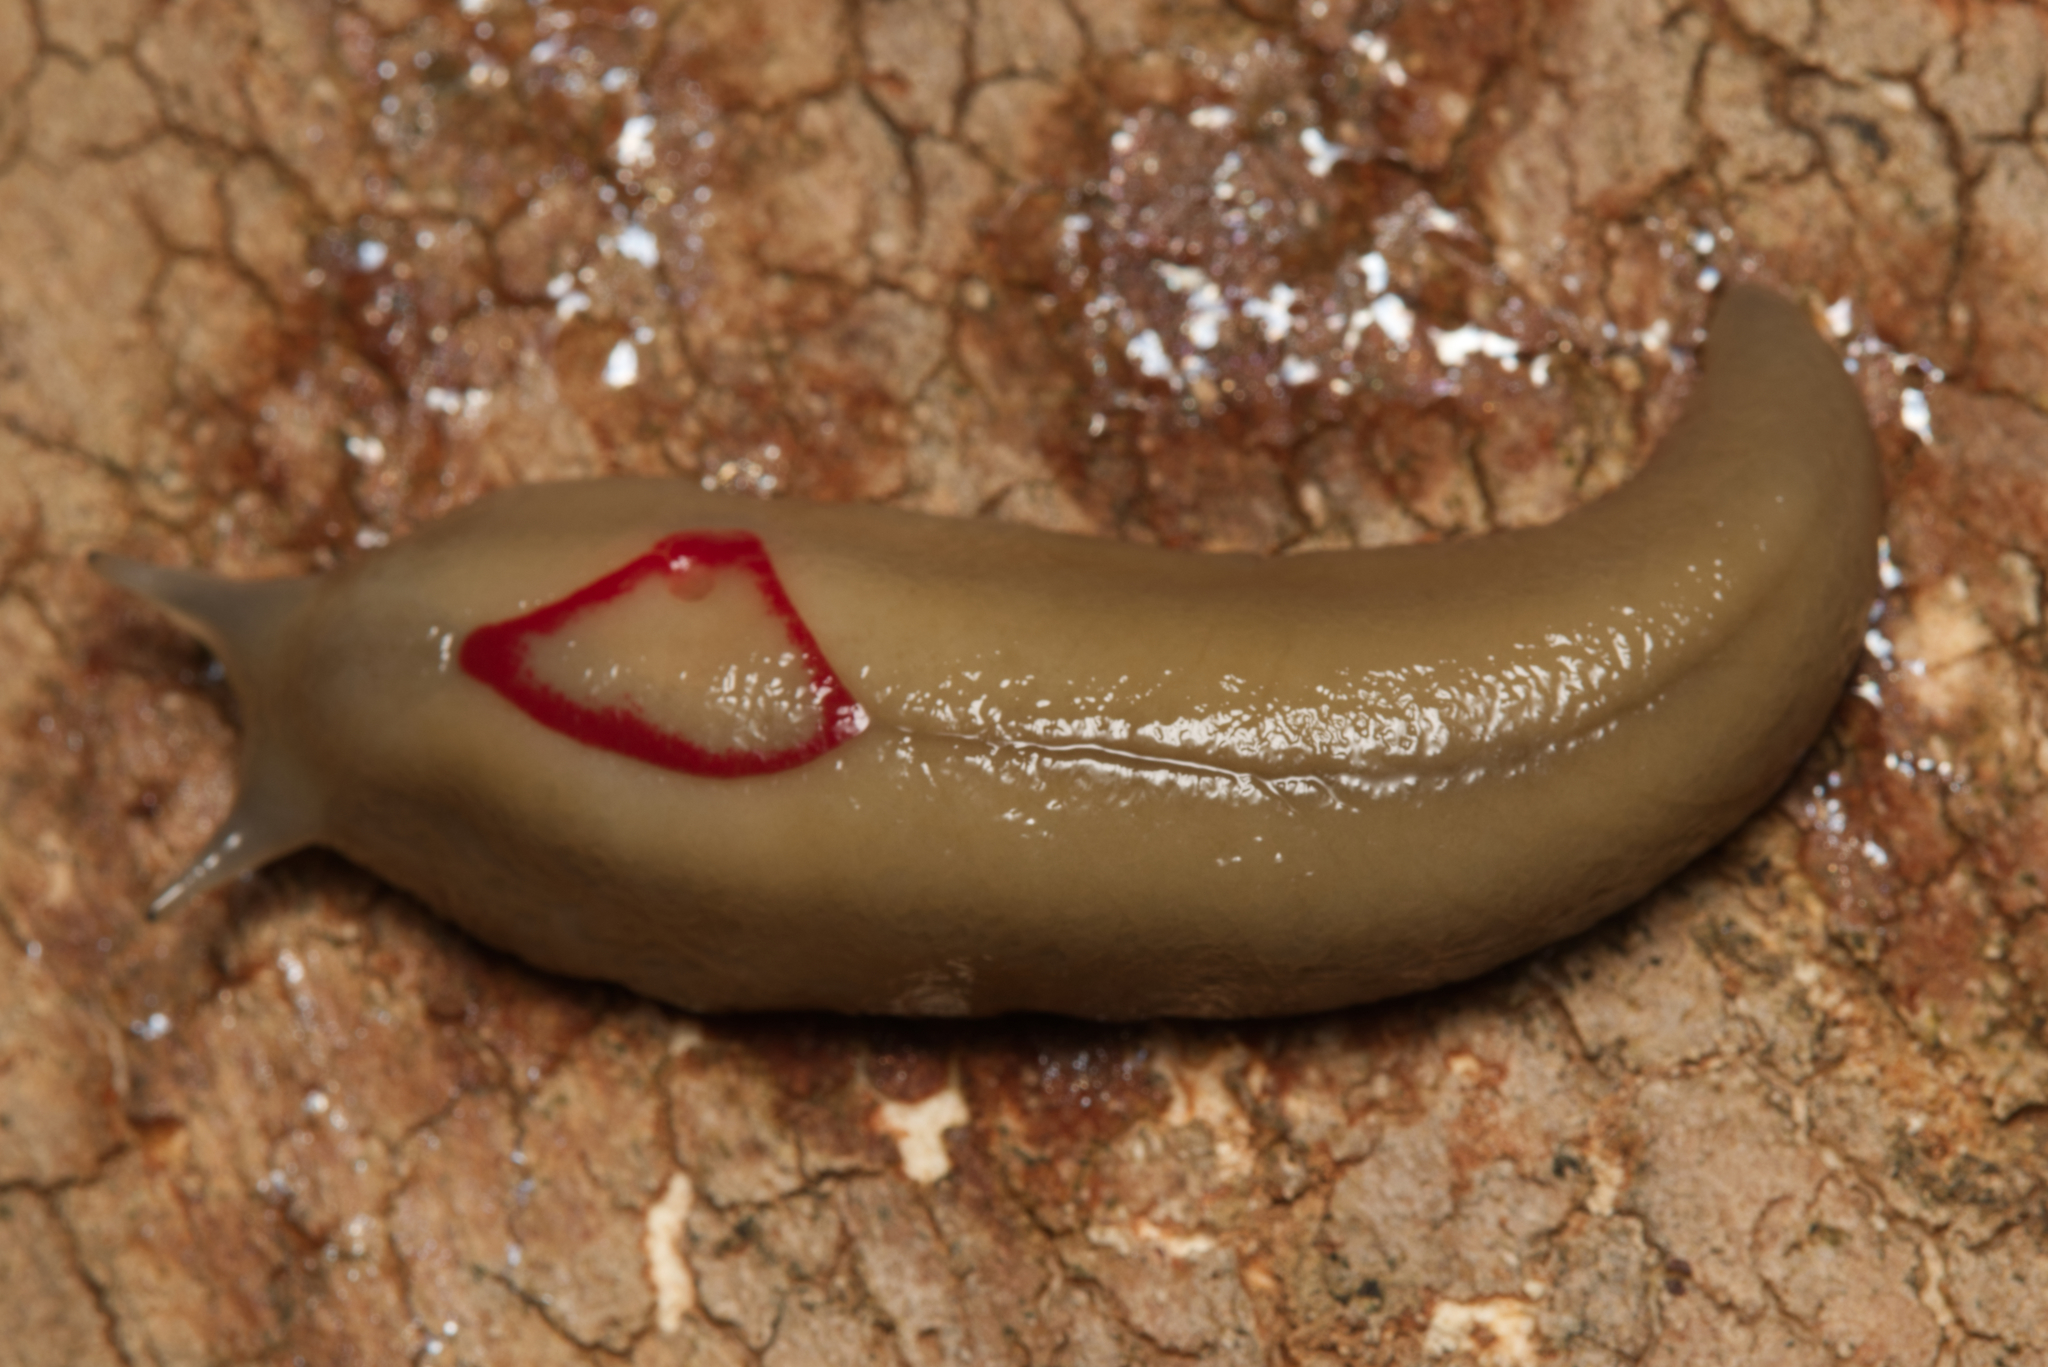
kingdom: Animalia
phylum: Mollusca
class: Gastropoda
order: Stylommatophora
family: Athoracophoridae
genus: Triboniophorus
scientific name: Triboniophorus graeffei
